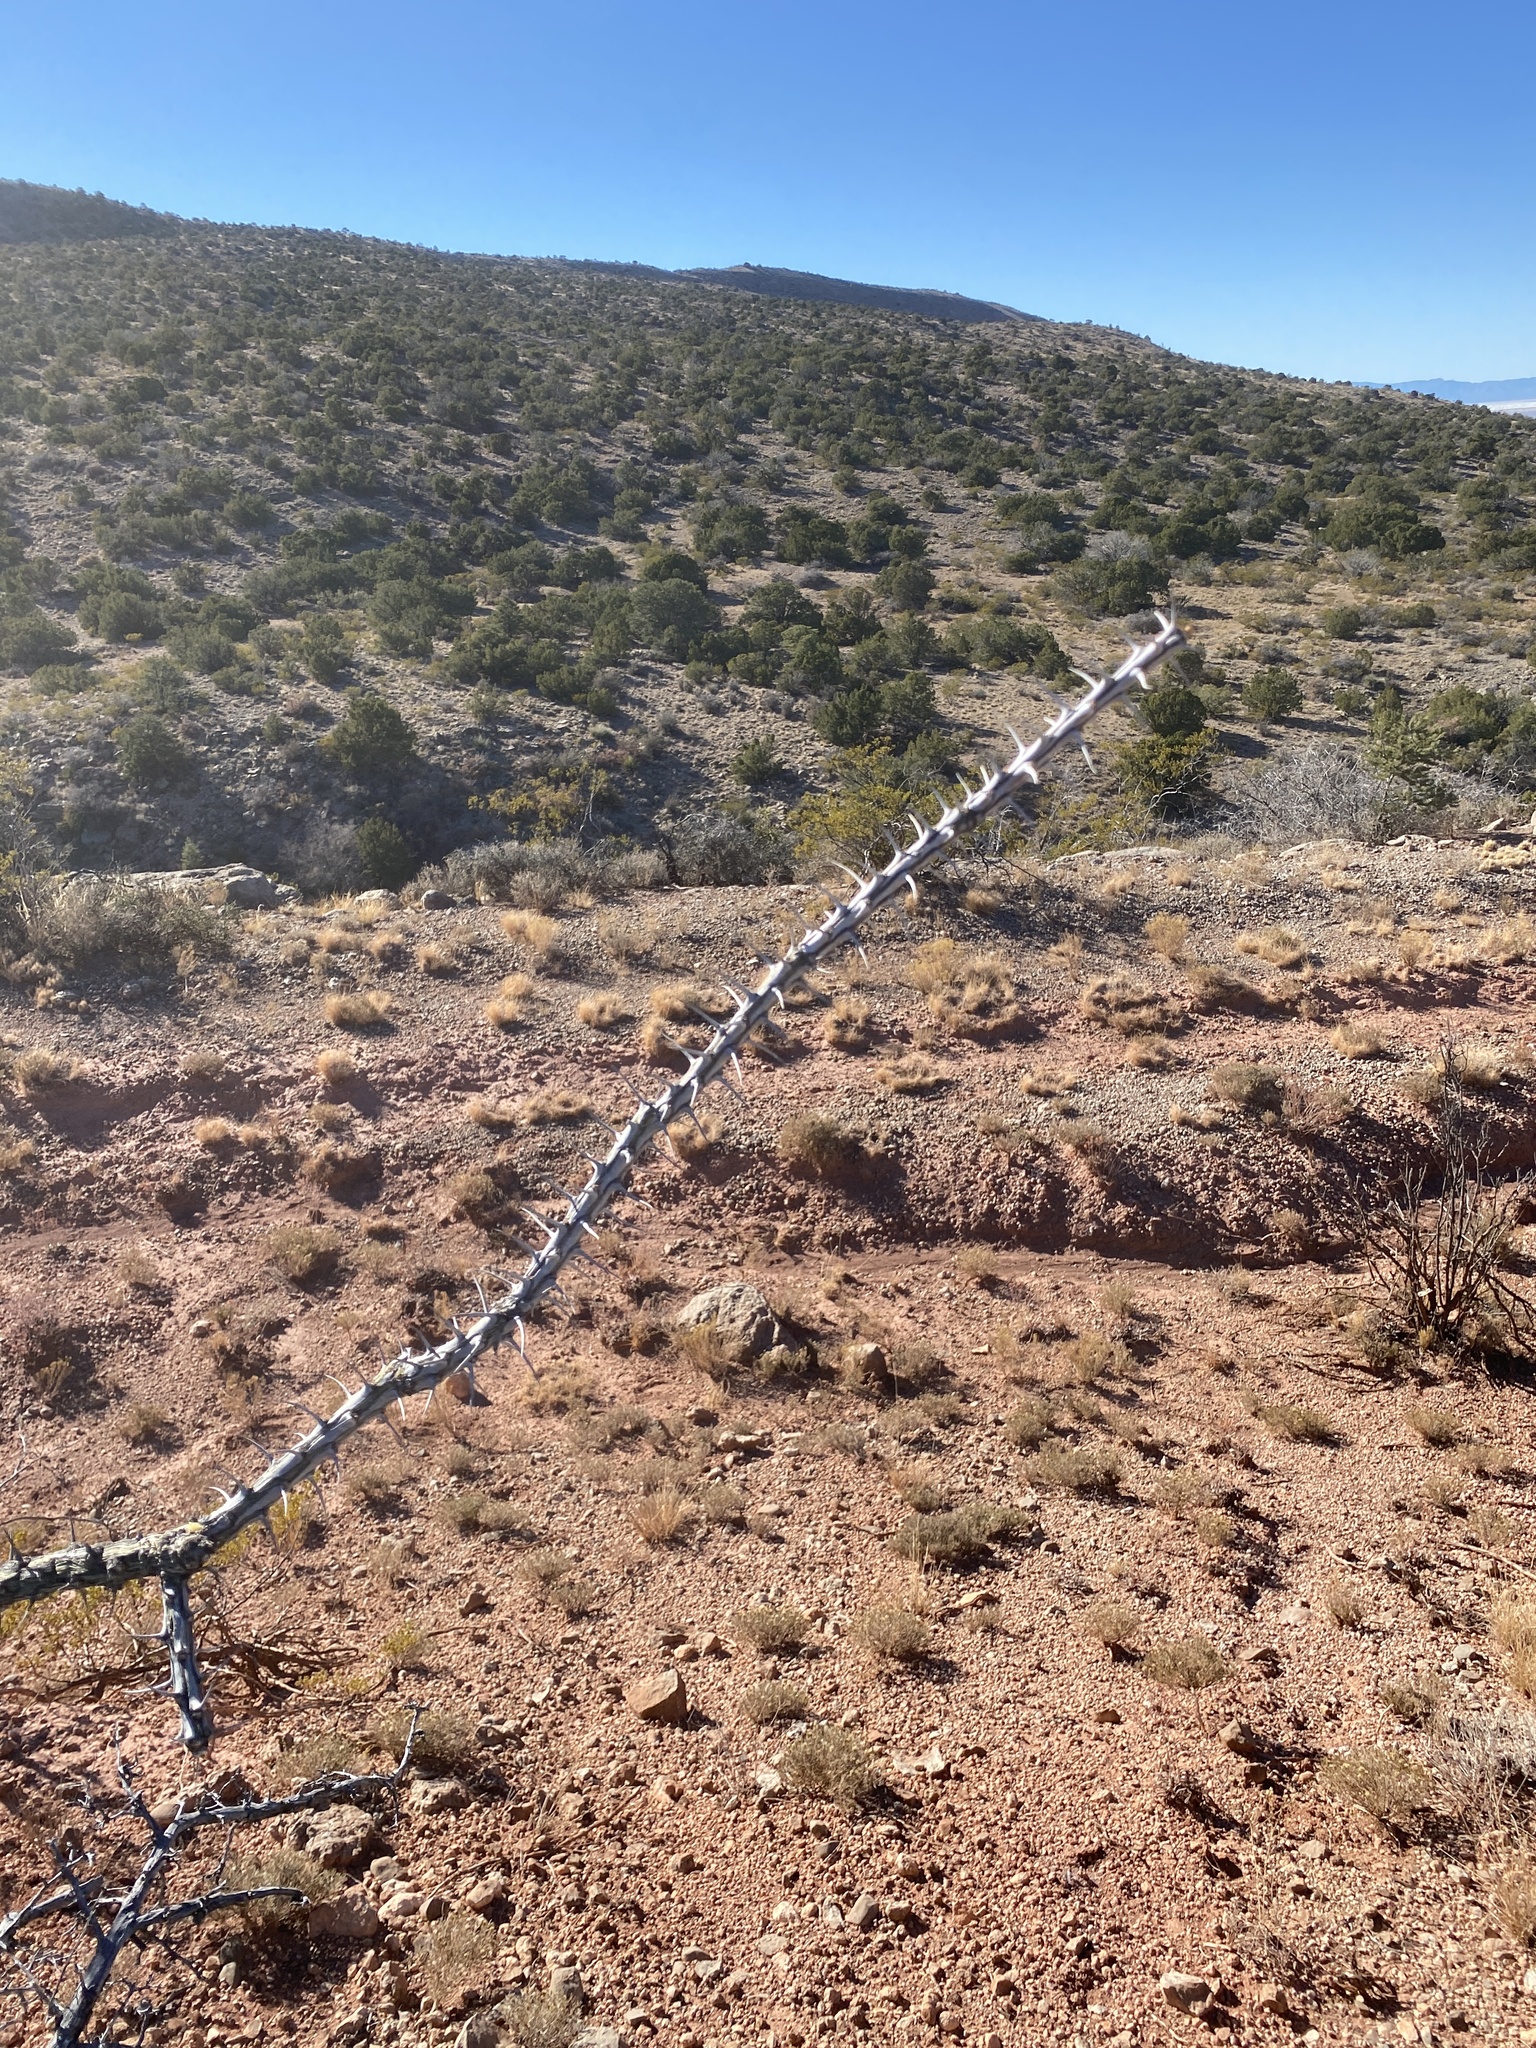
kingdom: Plantae
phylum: Tracheophyta
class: Magnoliopsida
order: Ericales
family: Fouquieriaceae
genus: Fouquieria
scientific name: Fouquieria splendens
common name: Vine-cactus
